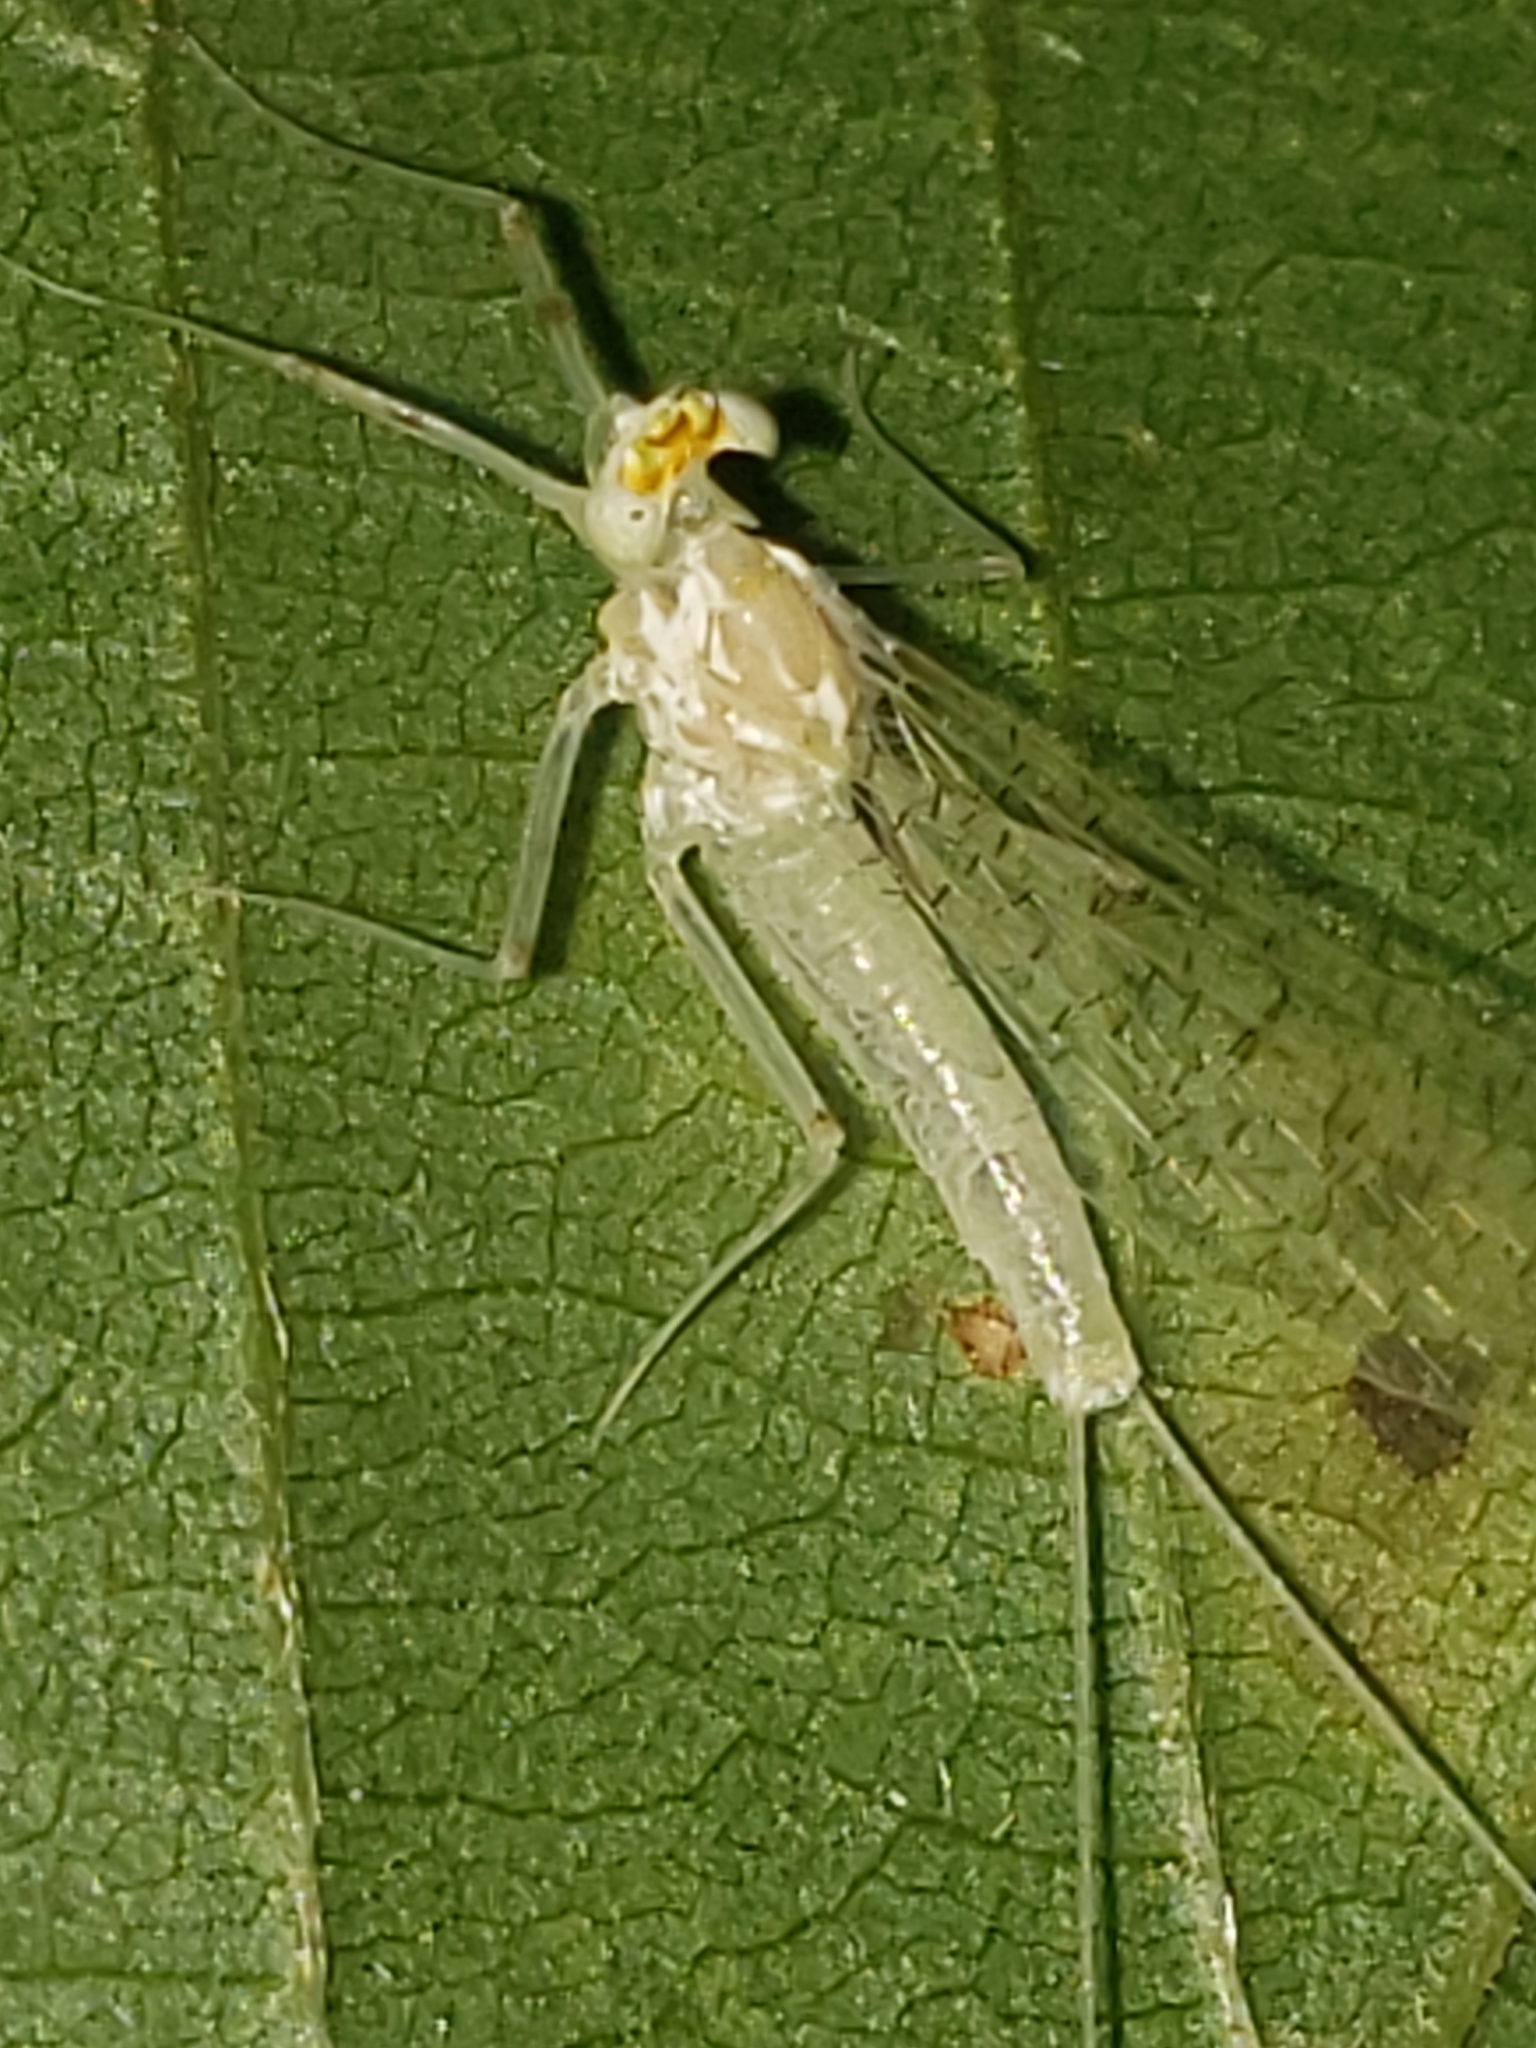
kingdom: Animalia
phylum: Arthropoda
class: Insecta
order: Ephemeroptera
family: Heptageniidae
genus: Stenacron
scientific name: Stenacron interpunctatum
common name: Orange cahill
